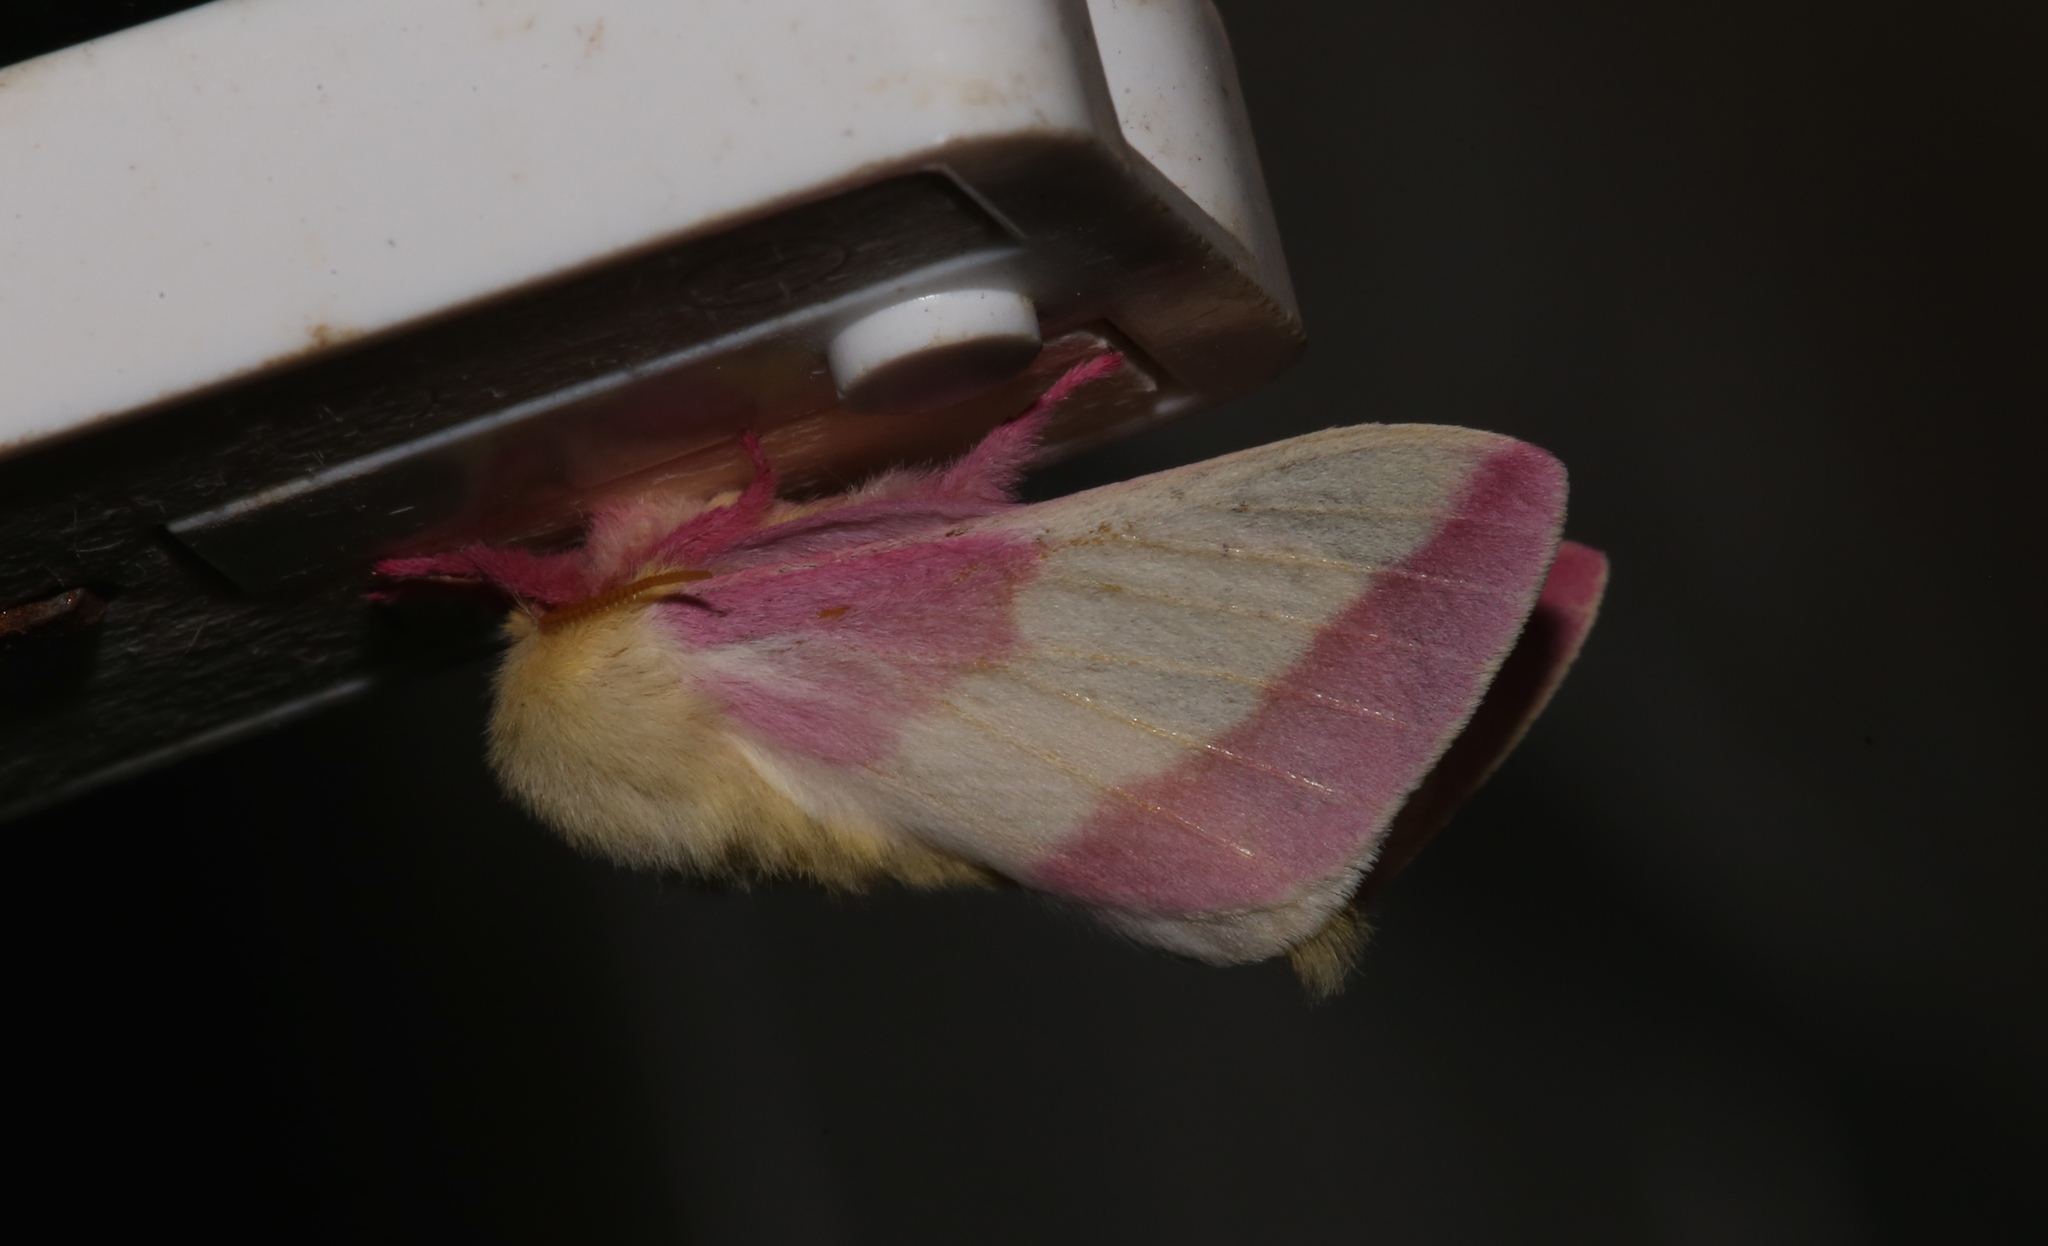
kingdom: Animalia
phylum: Arthropoda
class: Insecta
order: Lepidoptera
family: Saturniidae
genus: Dryocampa
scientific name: Dryocampa rubicunda
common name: Rosy maple moth
